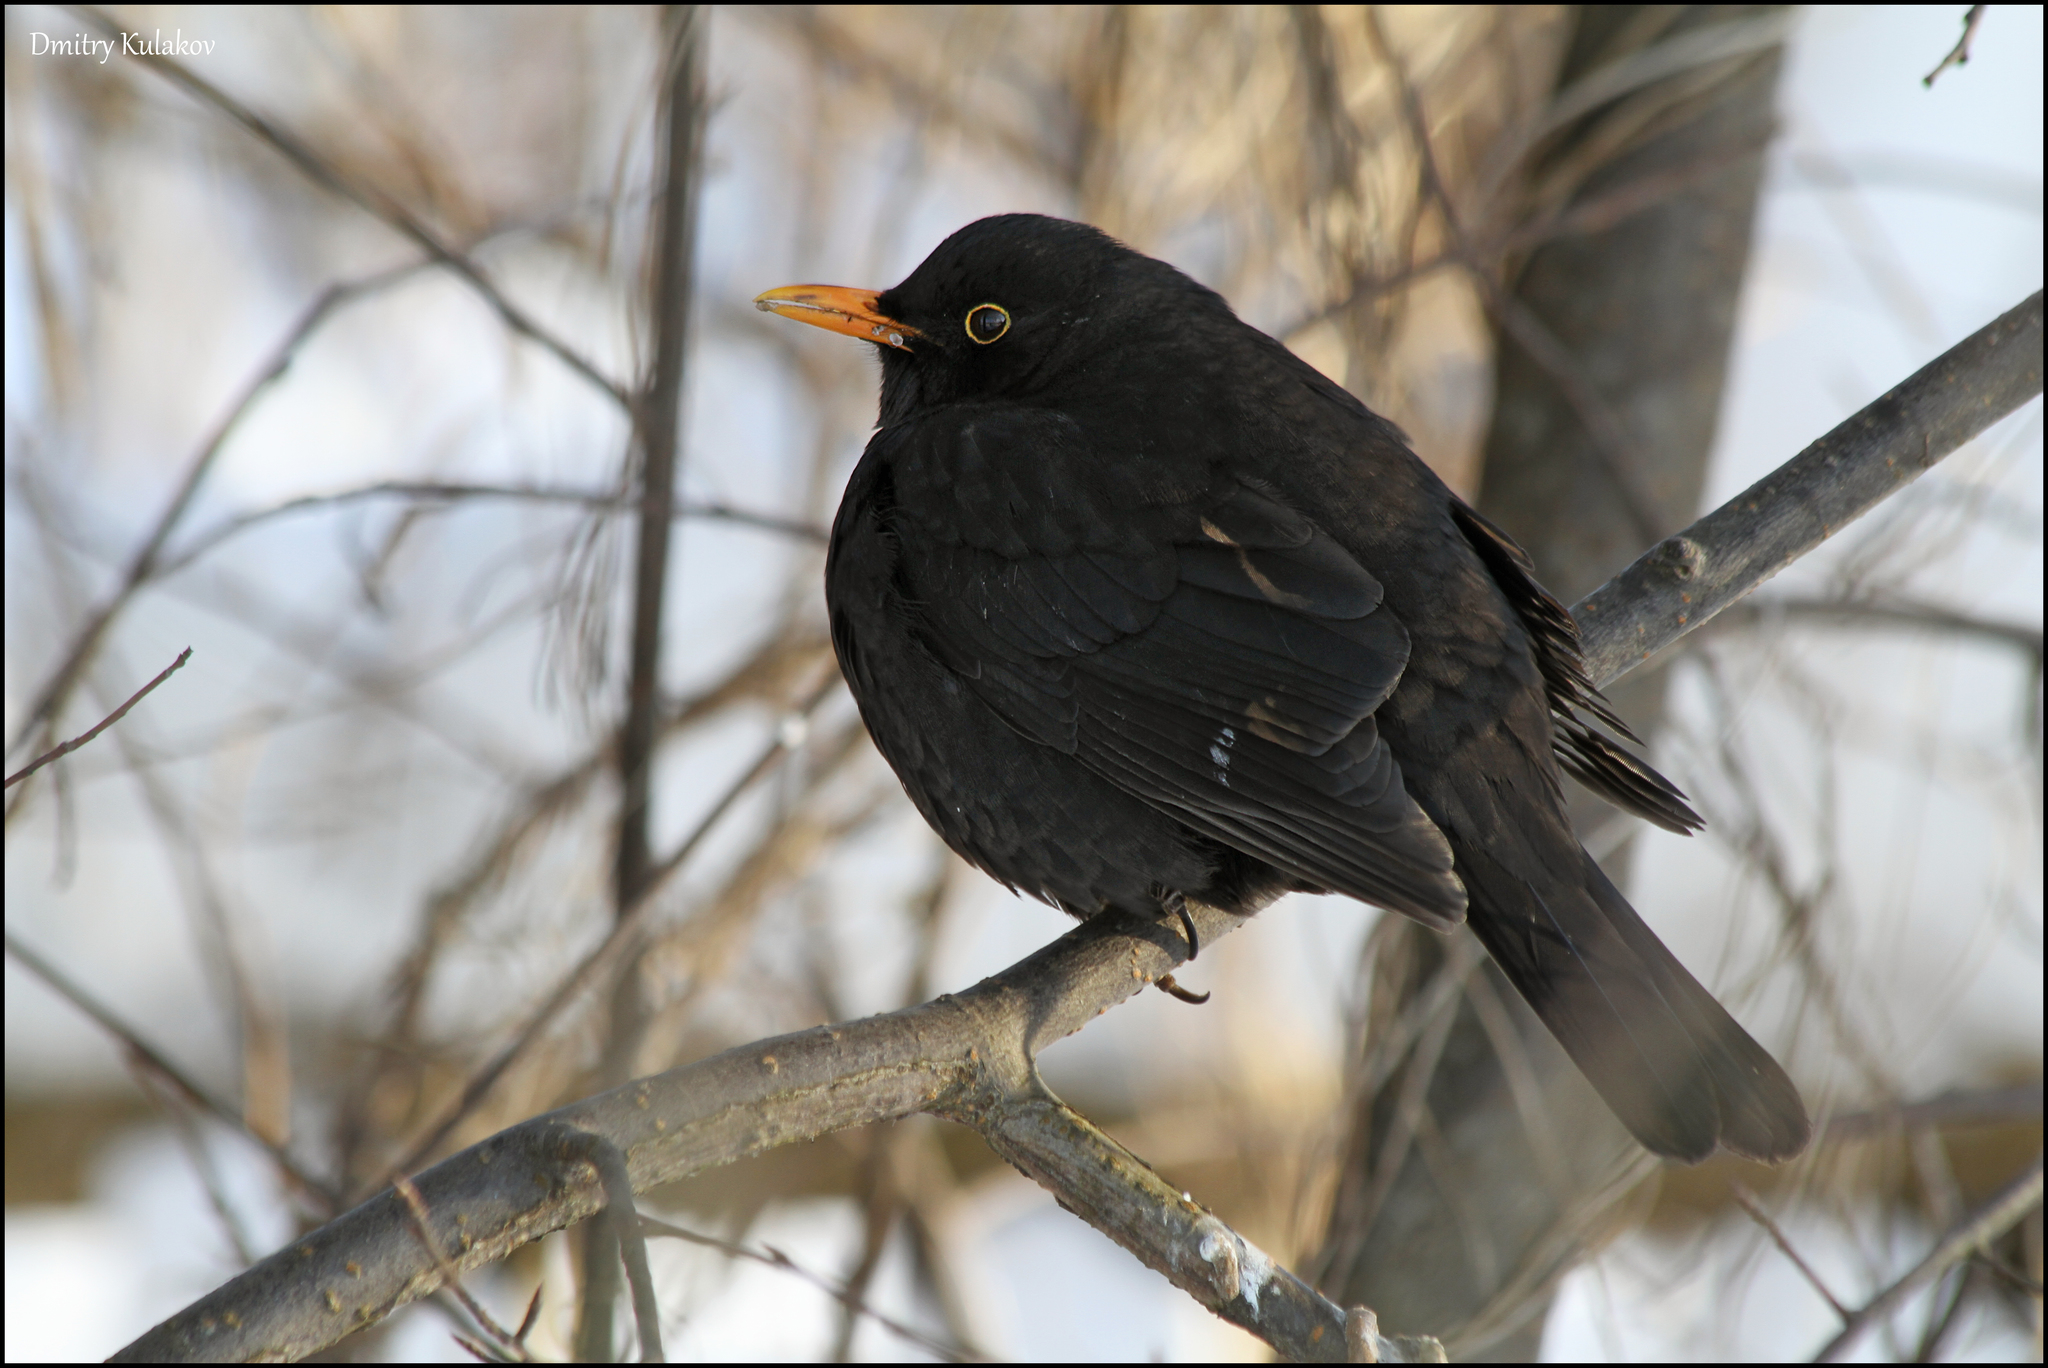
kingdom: Animalia
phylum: Chordata
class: Aves
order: Passeriformes
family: Turdidae
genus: Turdus
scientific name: Turdus merula
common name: Common blackbird
